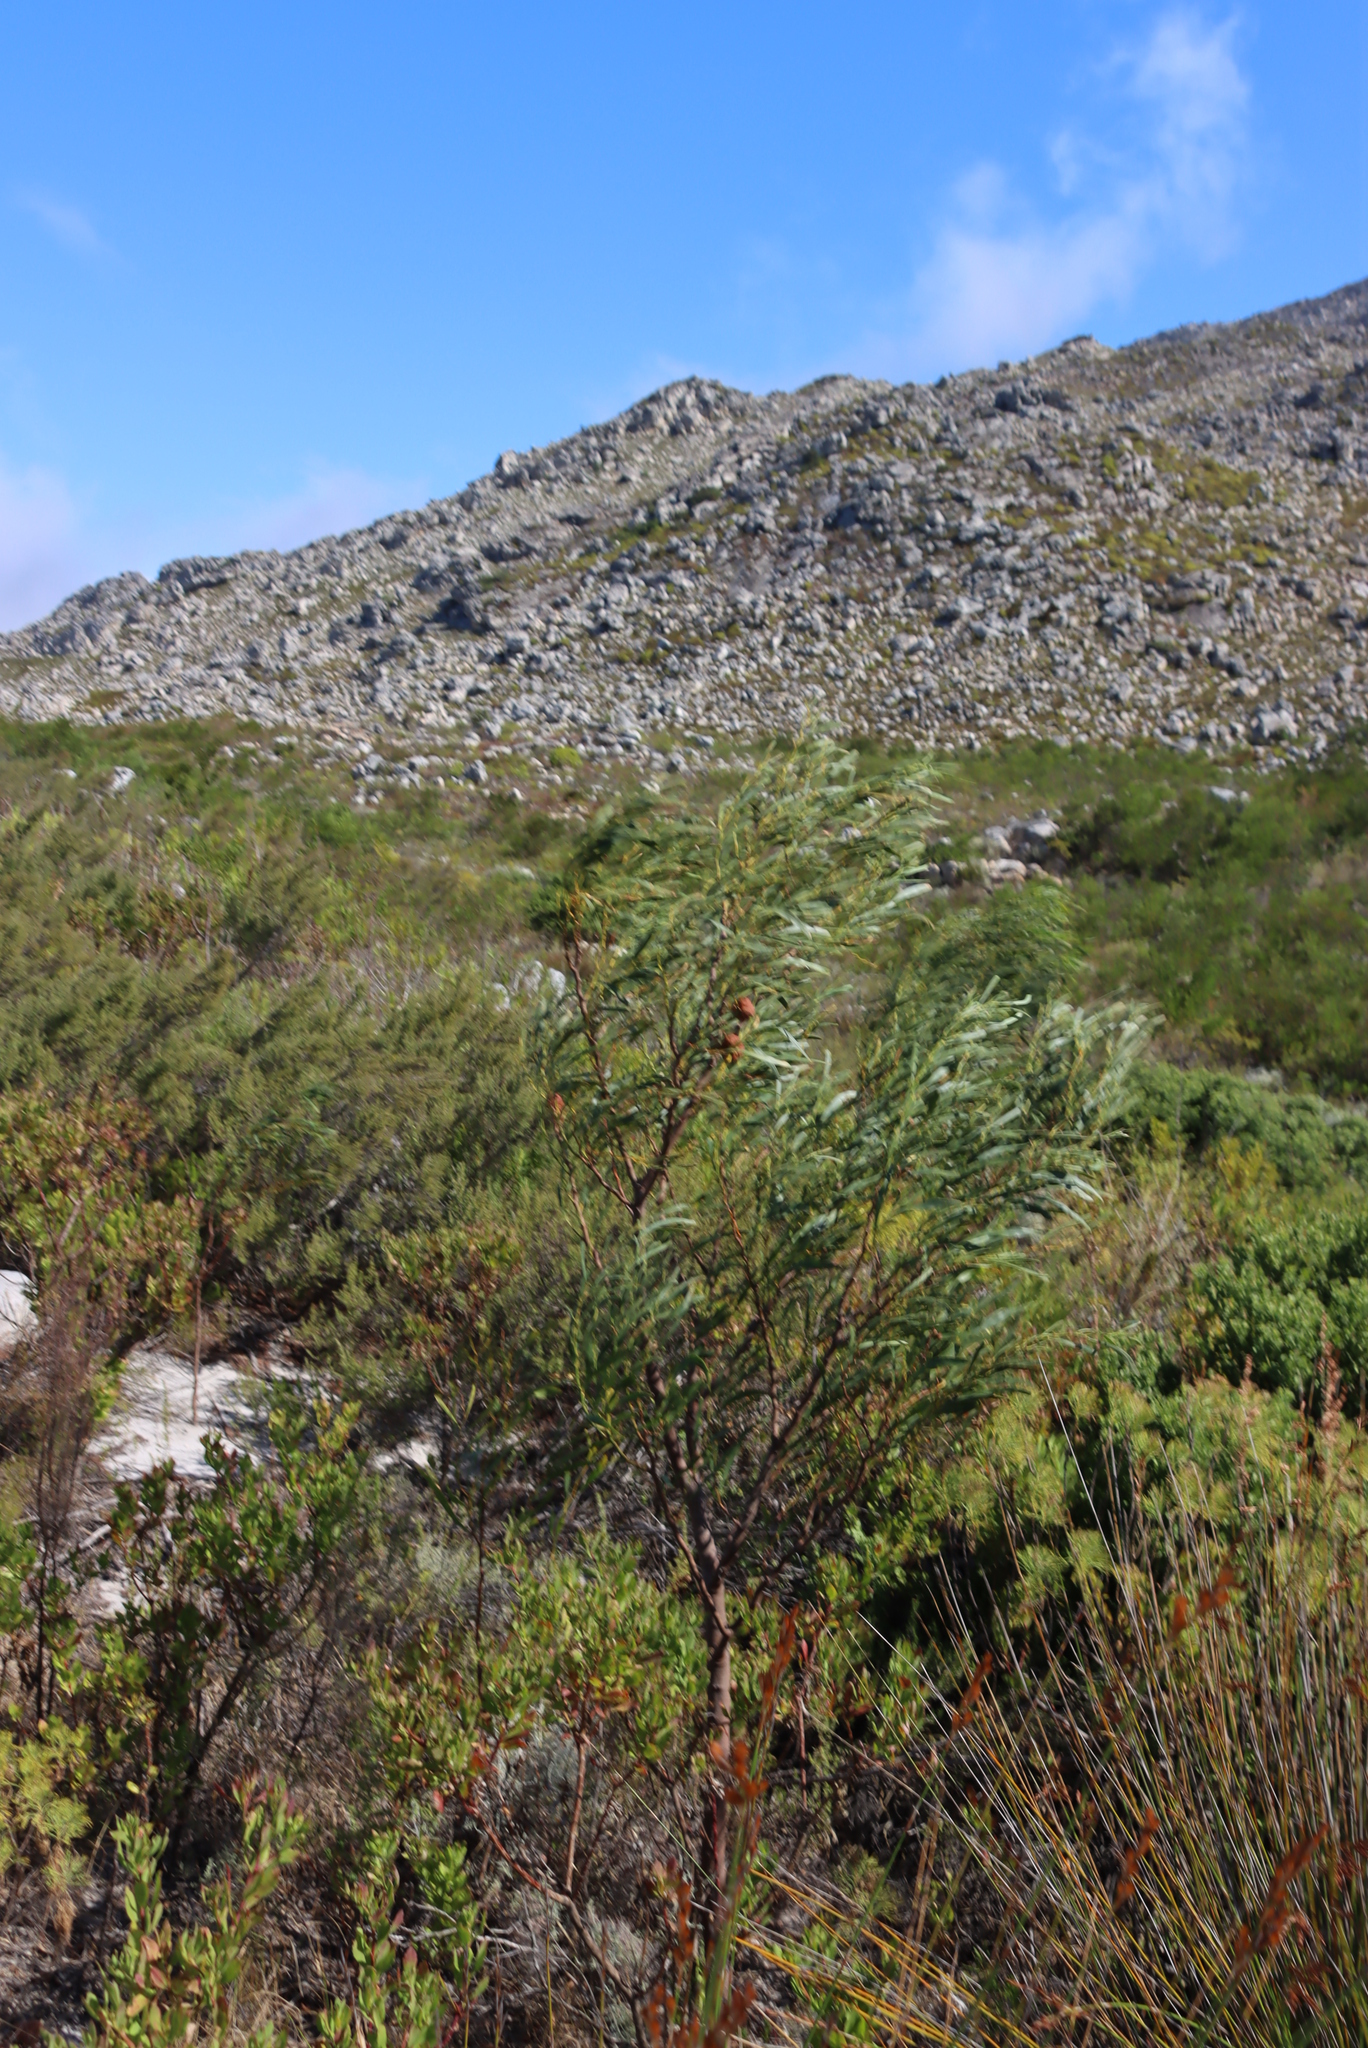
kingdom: Plantae
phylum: Tracheophyta
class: Magnoliopsida
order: Fabales
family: Fabaceae
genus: Acacia
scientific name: Acacia saligna
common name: Orange wattle
